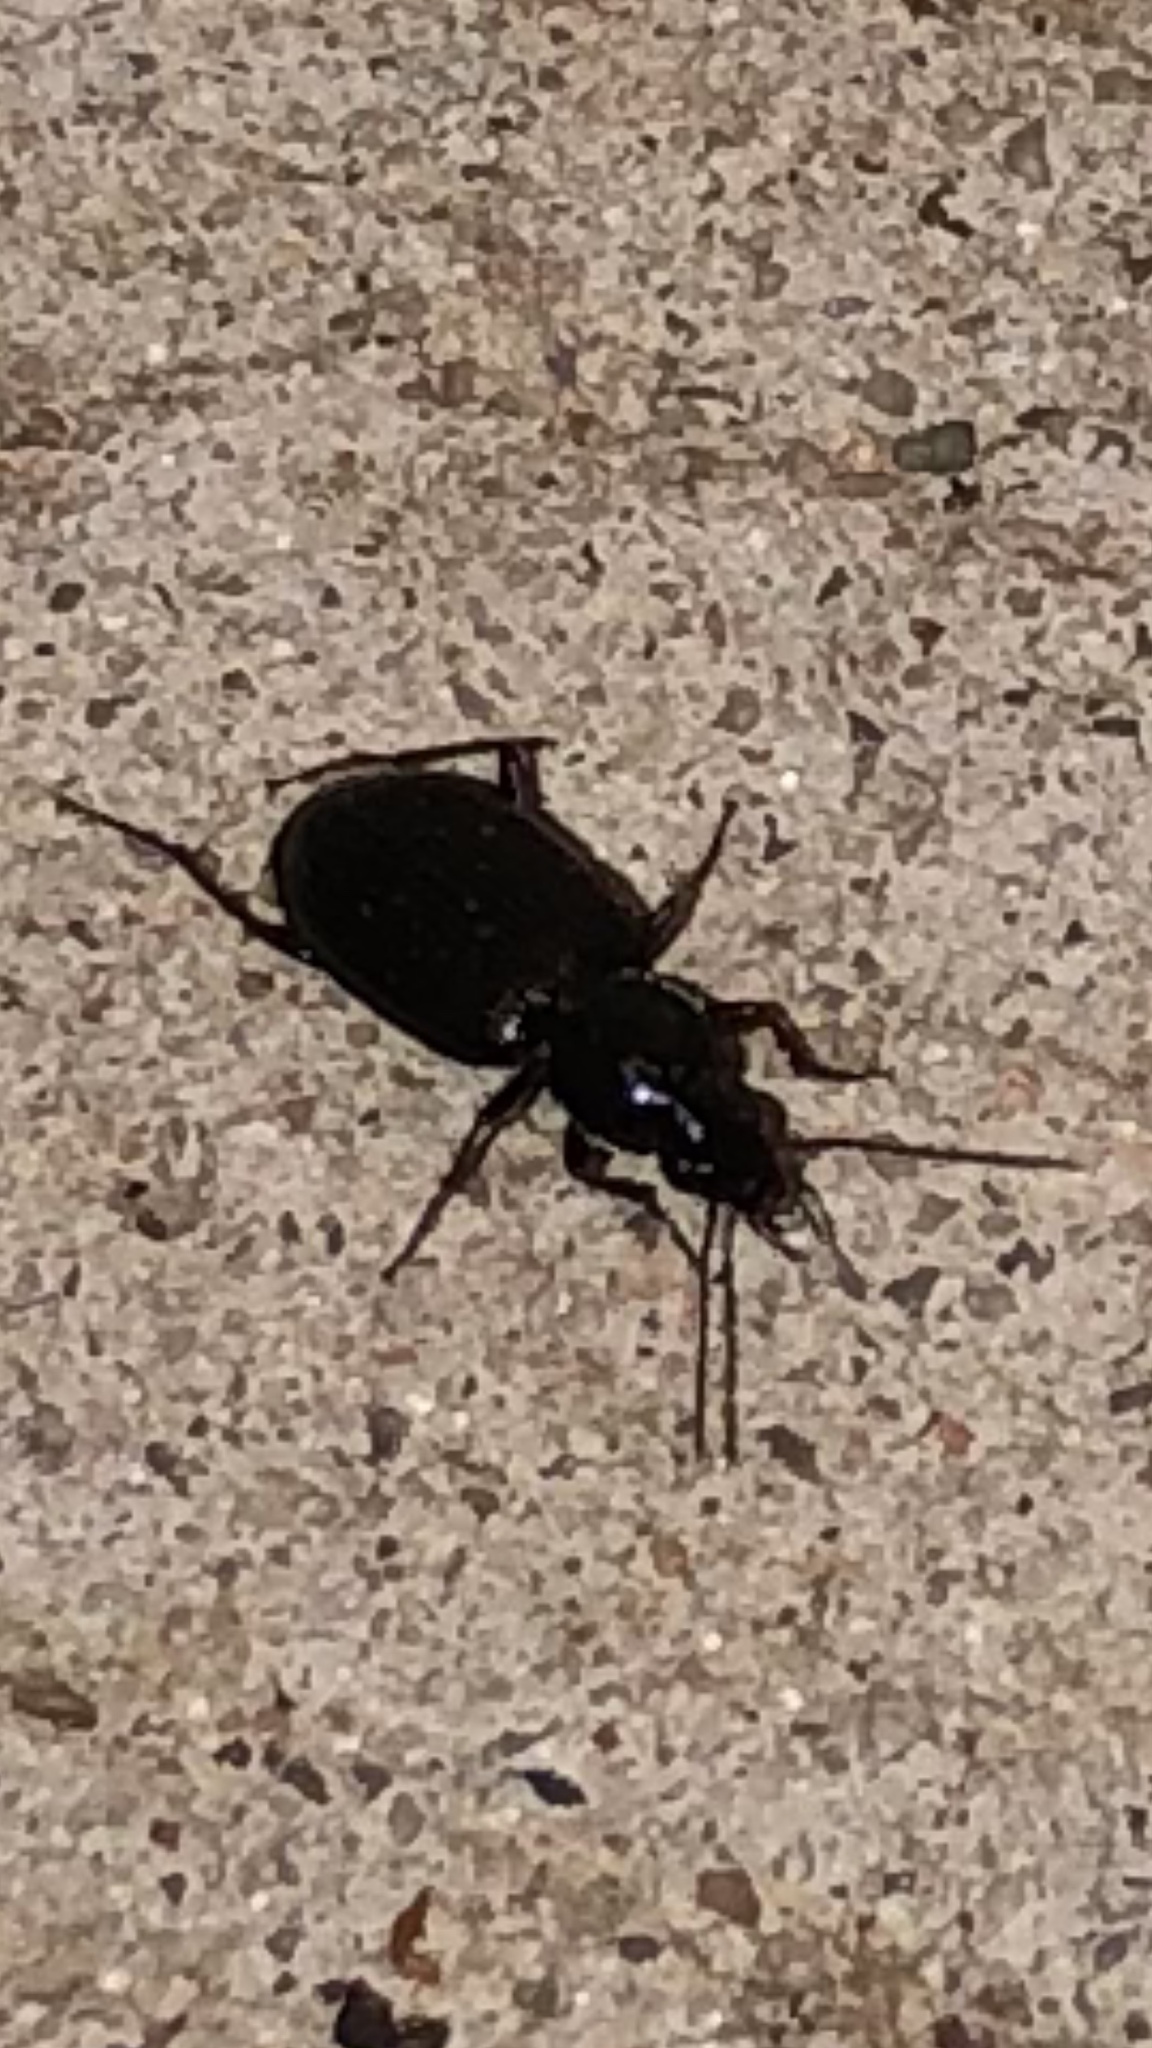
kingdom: Animalia
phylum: Arthropoda
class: Insecta
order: Coleoptera
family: Carabidae
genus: Agonum
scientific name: Agonum punctiforme
